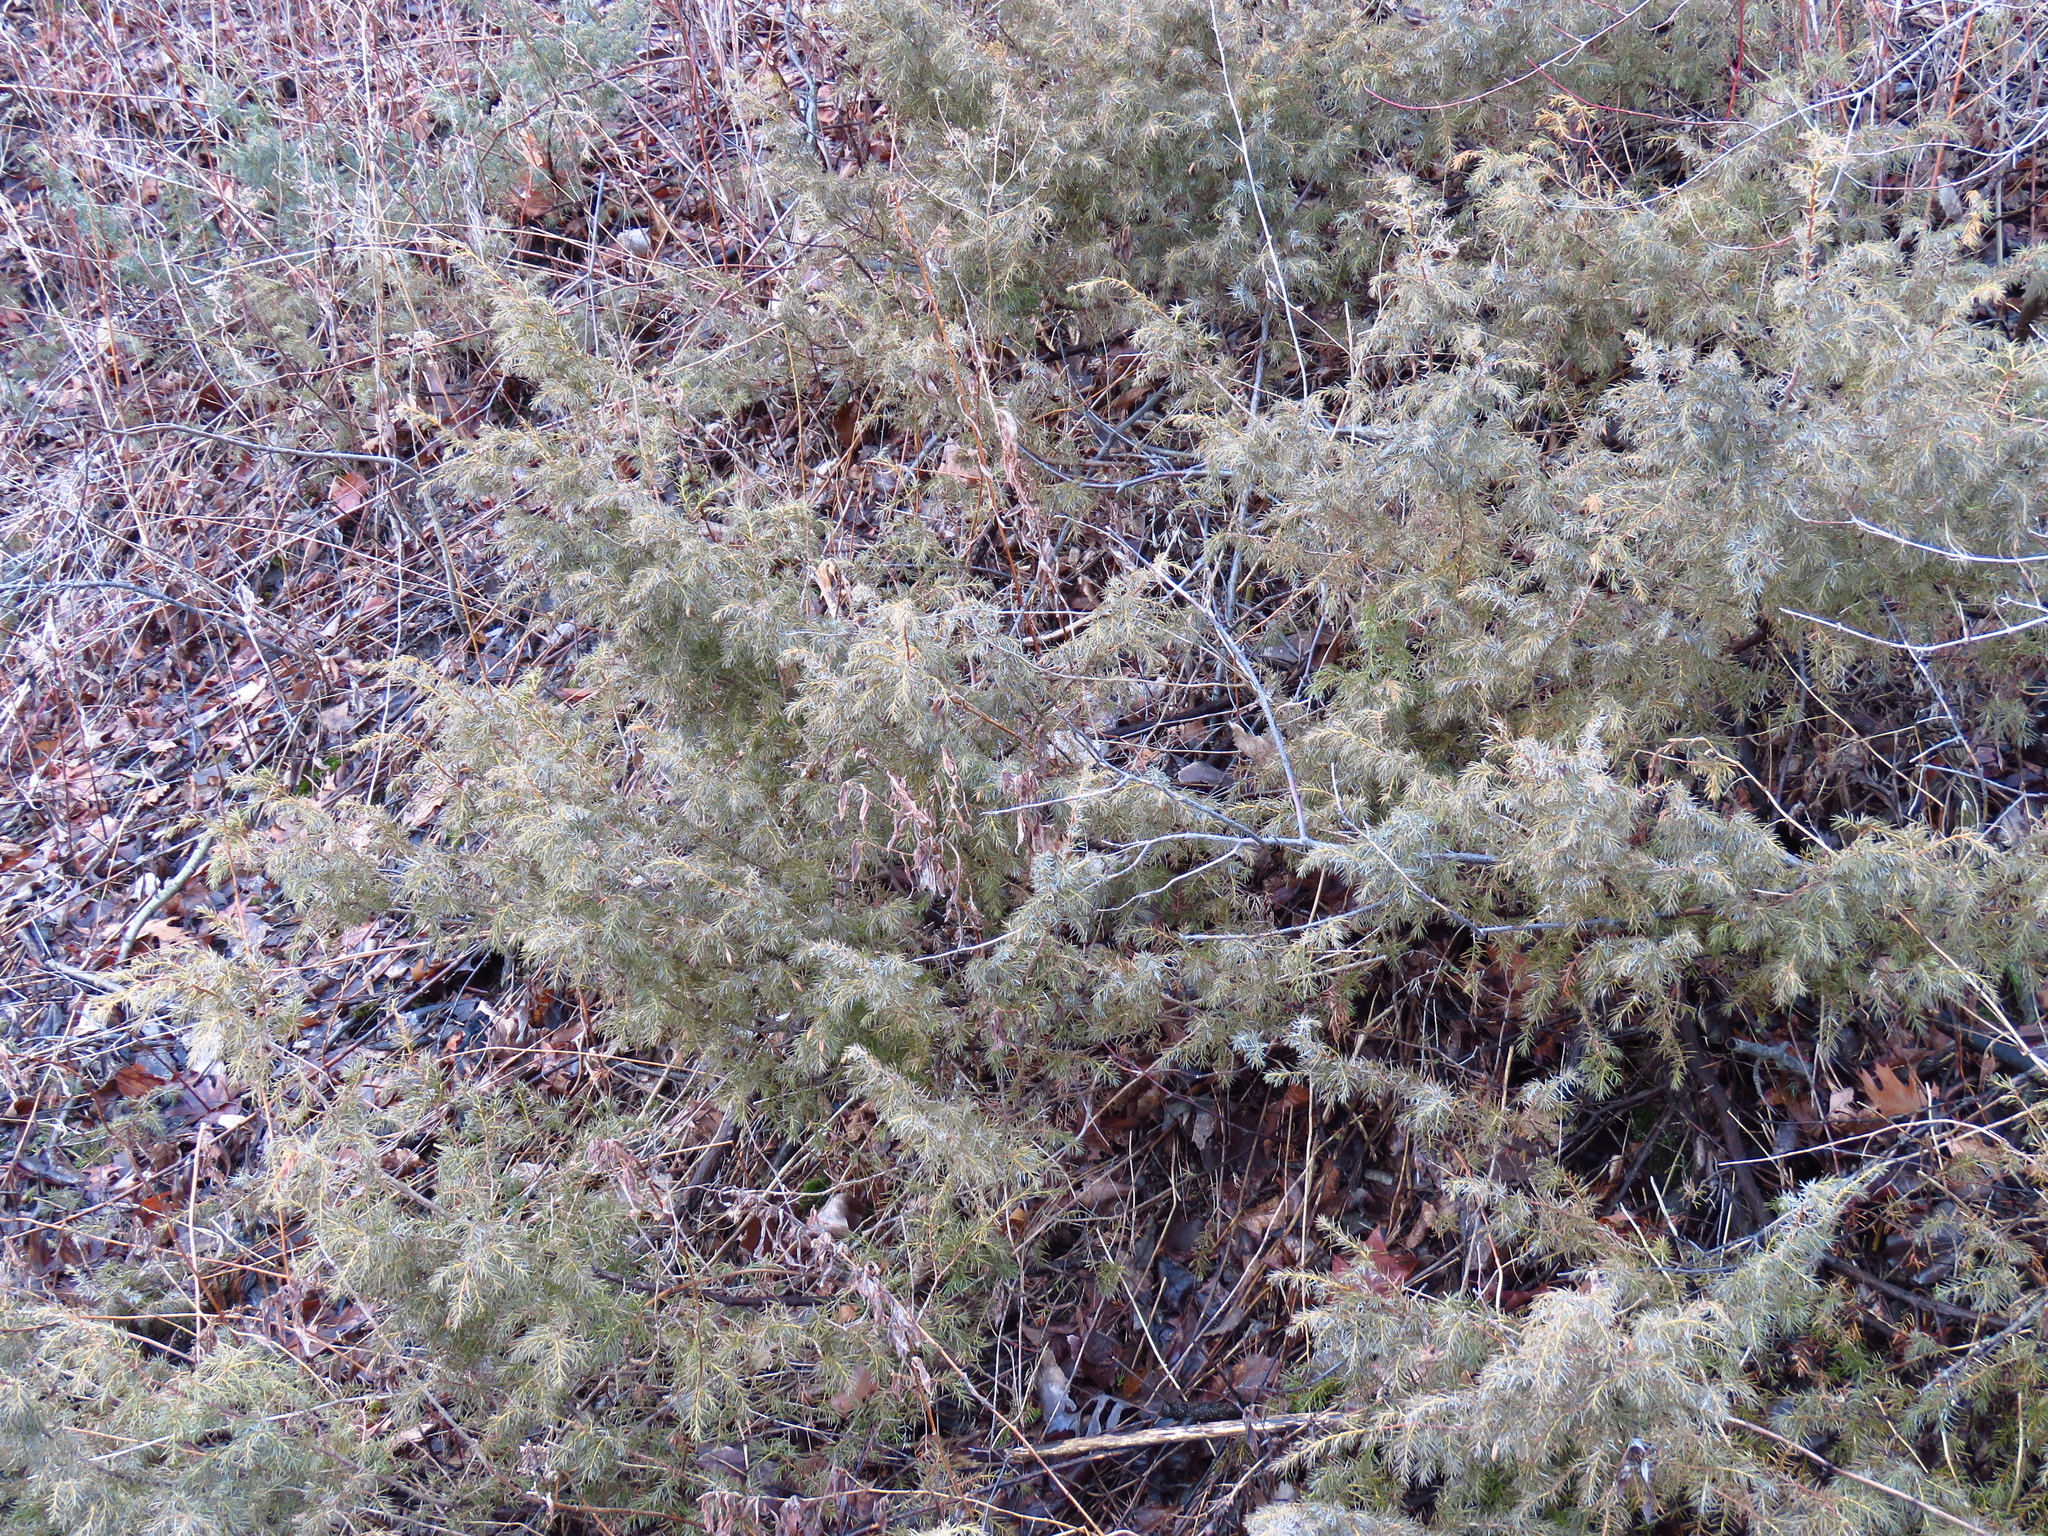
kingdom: Plantae
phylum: Tracheophyta
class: Pinopsida
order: Pinales
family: Cupressaceae
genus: Juniperus
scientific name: Juniperus communis
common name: Common juniper
